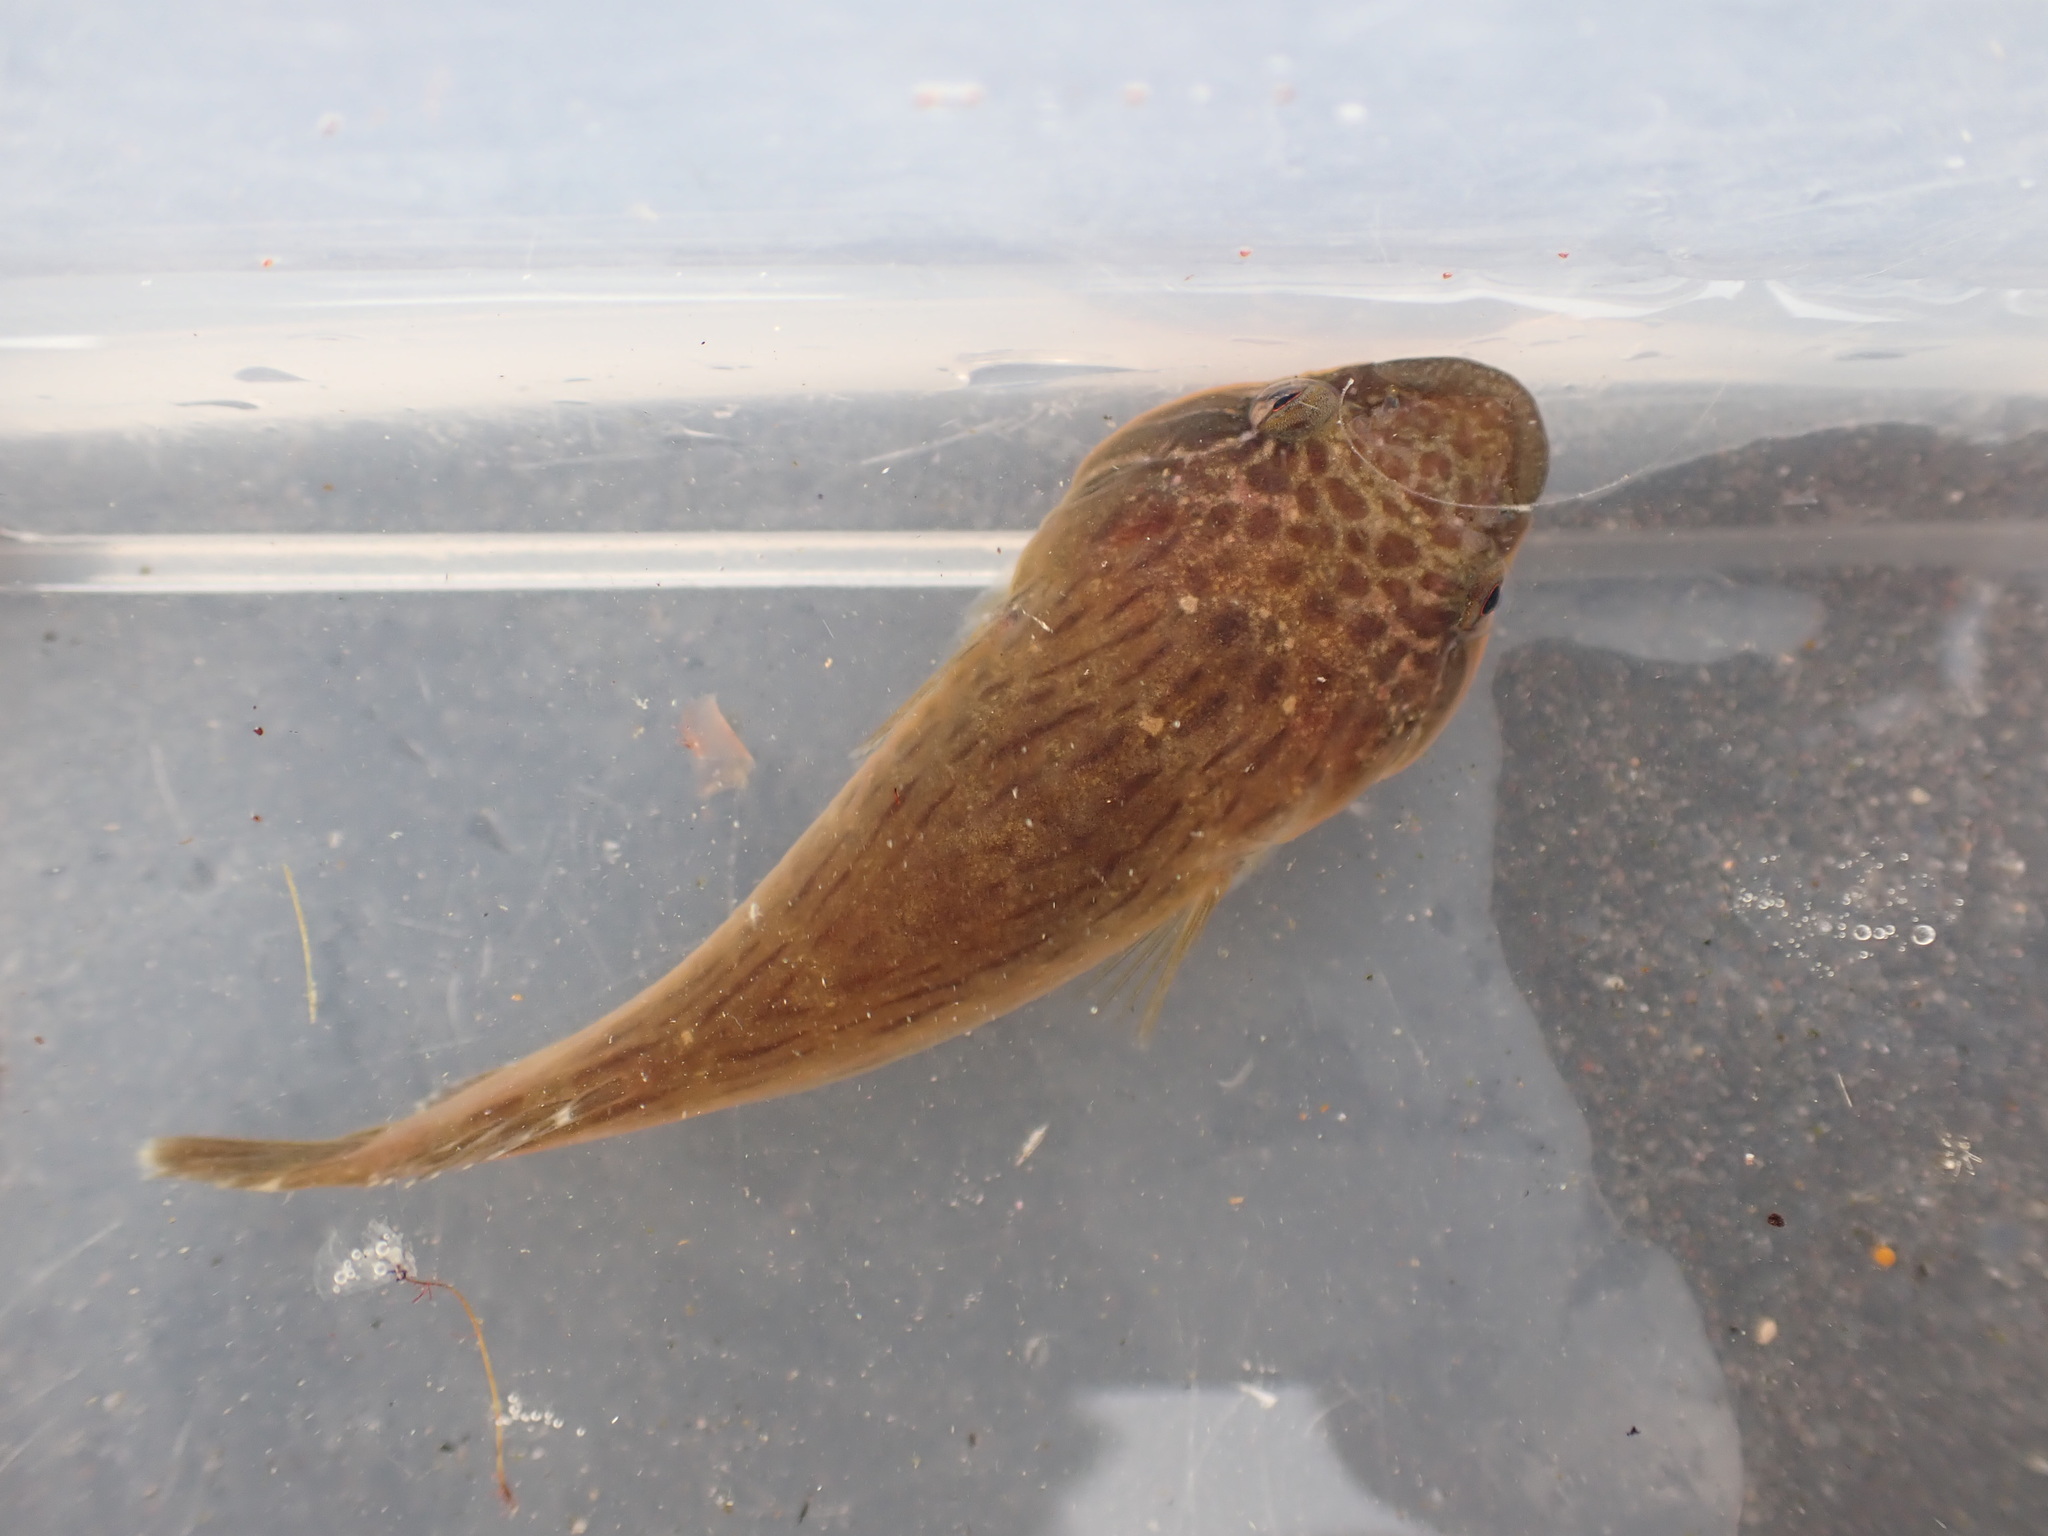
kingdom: Animalia
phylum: Chordata
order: Gobiesociformes
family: Gobiesocidae
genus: Trachelochismus
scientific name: Trachelochismus pinnulatus
